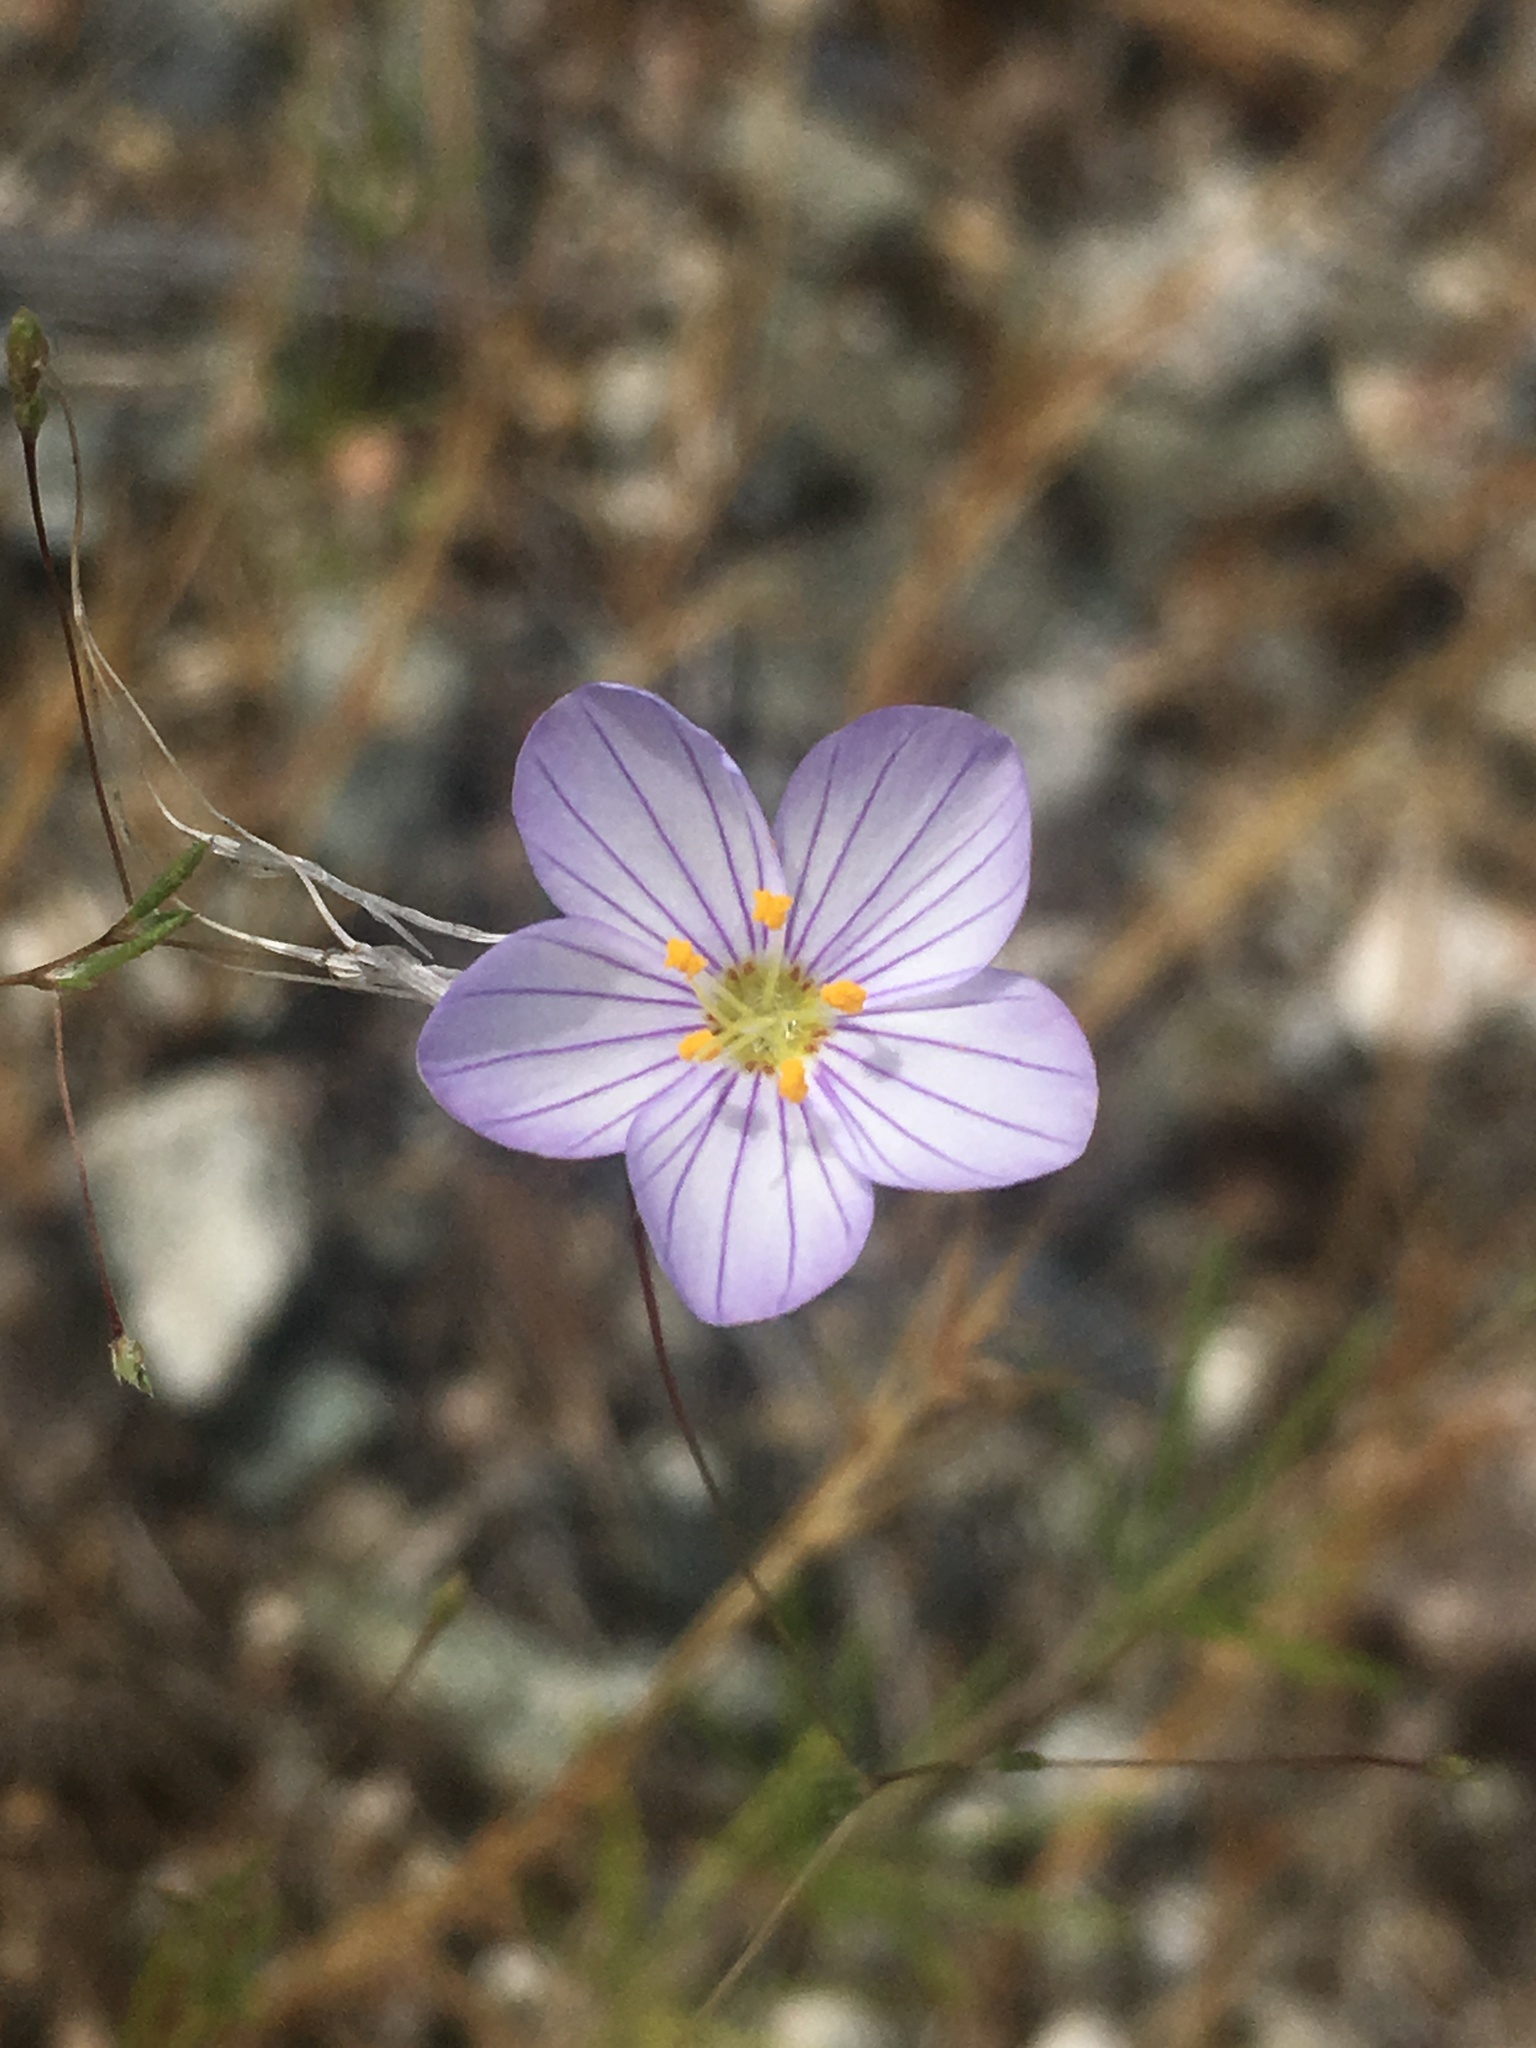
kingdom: Plantae
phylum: Tracheophyta
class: Magnoliopsida
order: Ericales
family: Polemoniaceae
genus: Leptosiphon
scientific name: Leptosiphon liniflorus
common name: Narrowflower flaxflower
